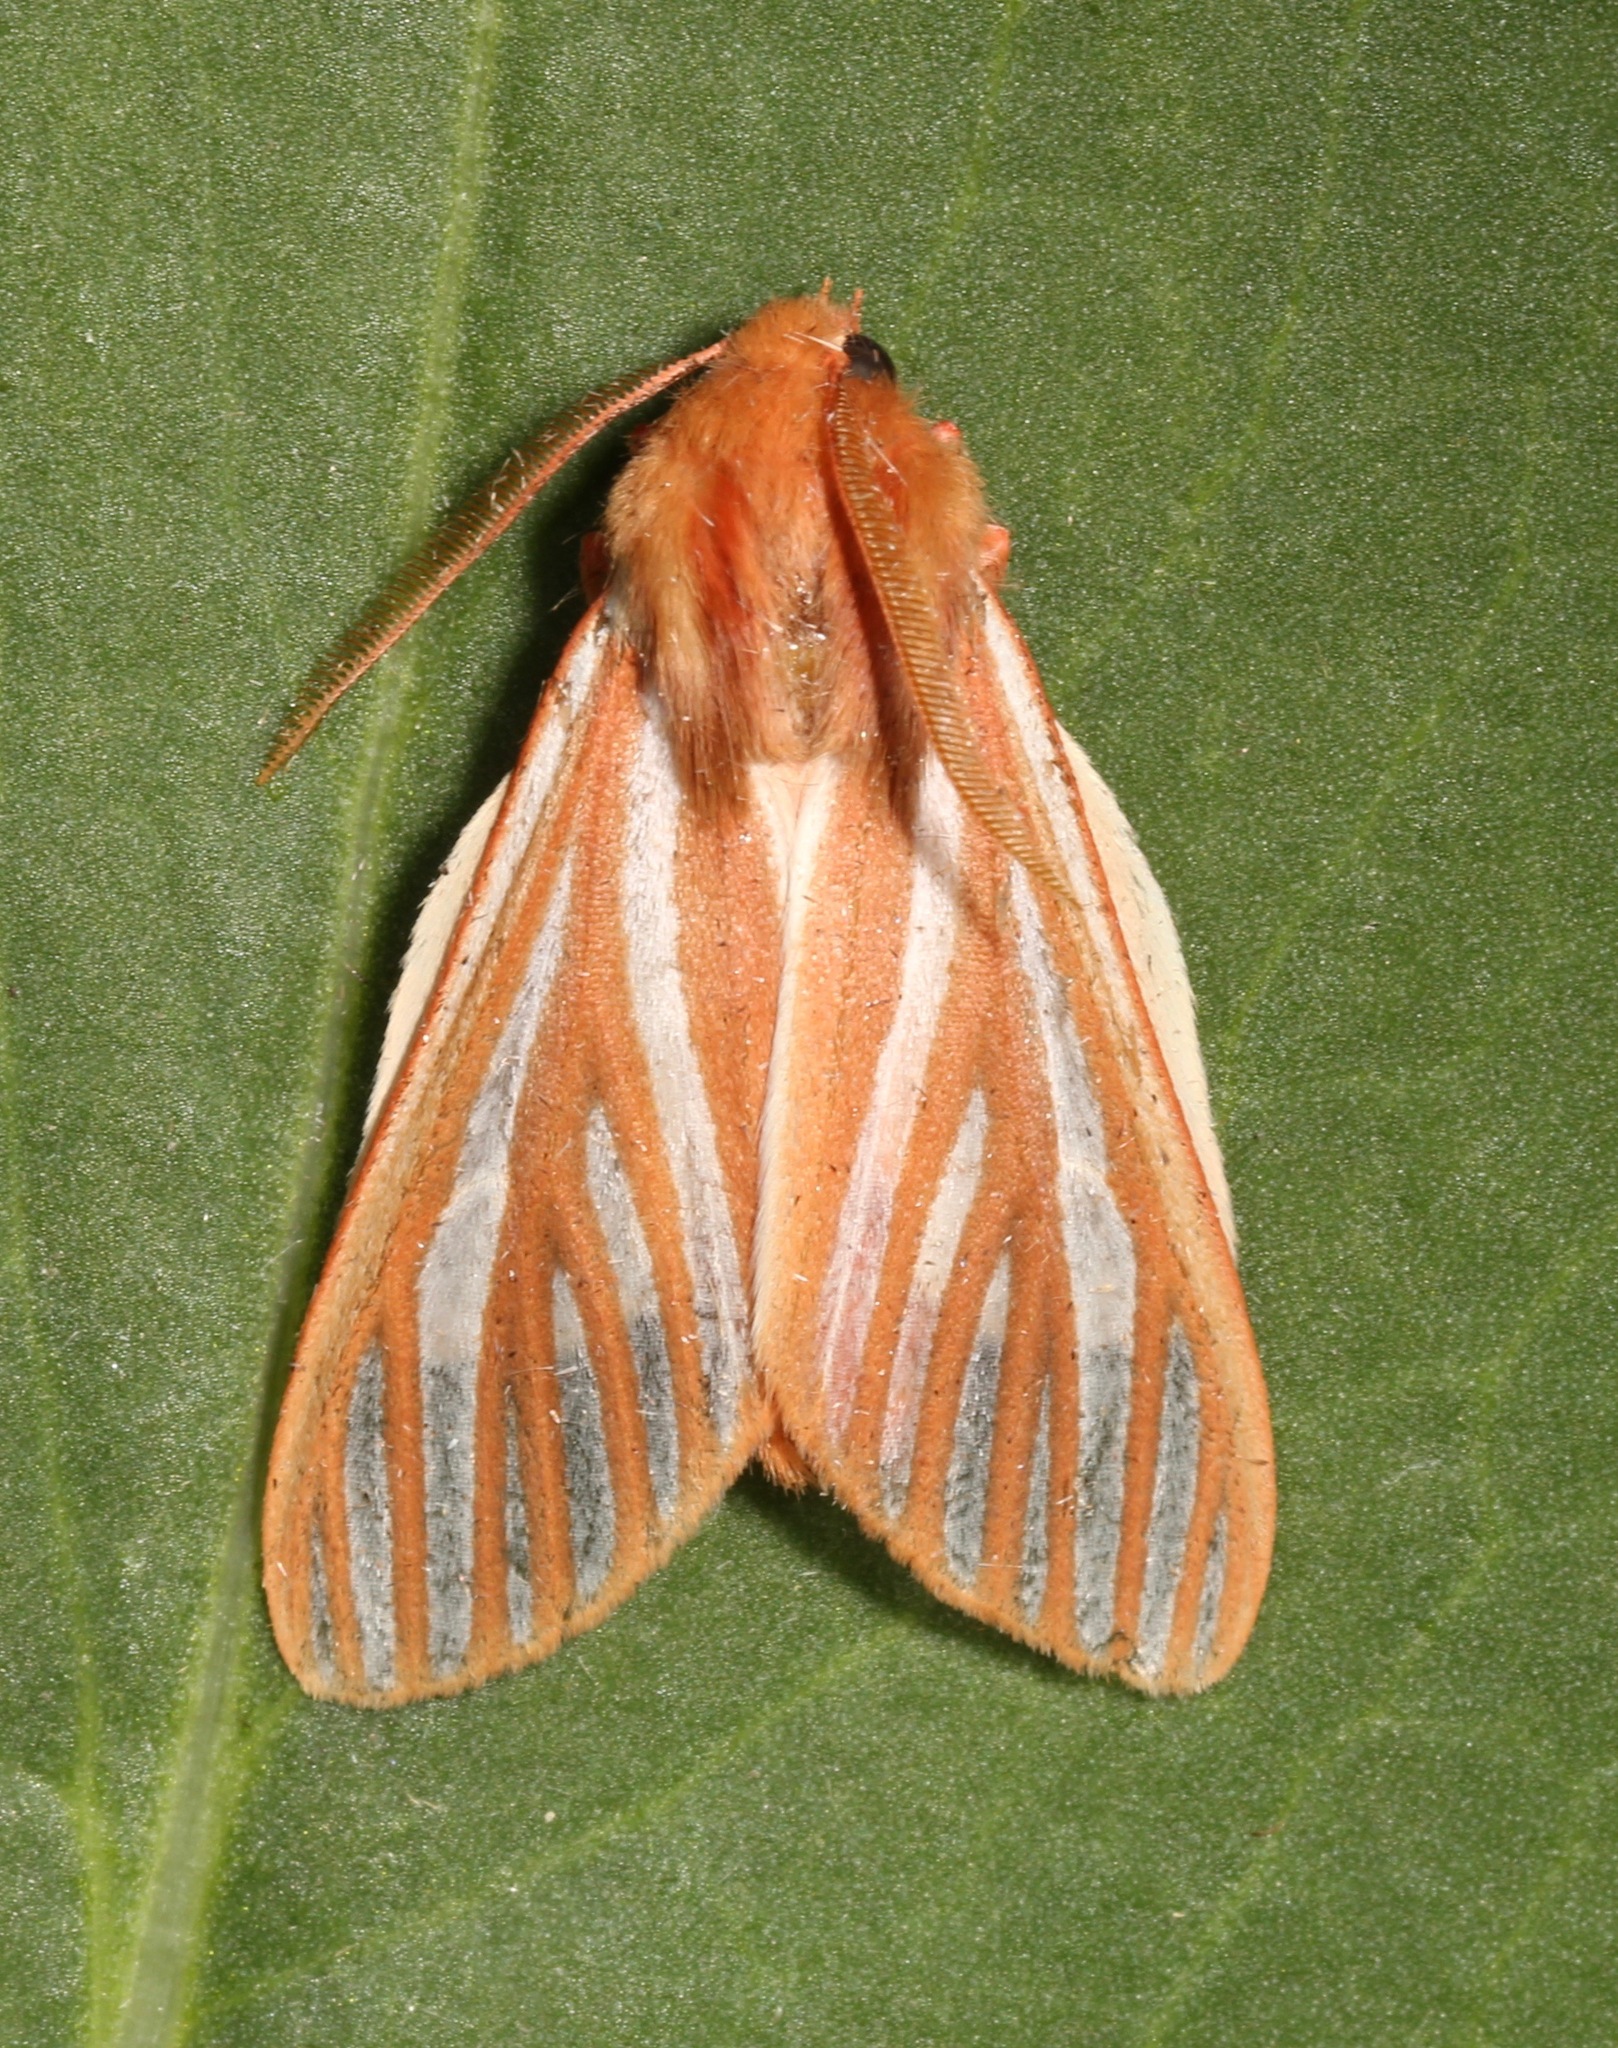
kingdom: Animalia
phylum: Arthropoda
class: Insecta
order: Lepidoptera
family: Erebidae
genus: Hemihyalea
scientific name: Hemihyalea ambigua
